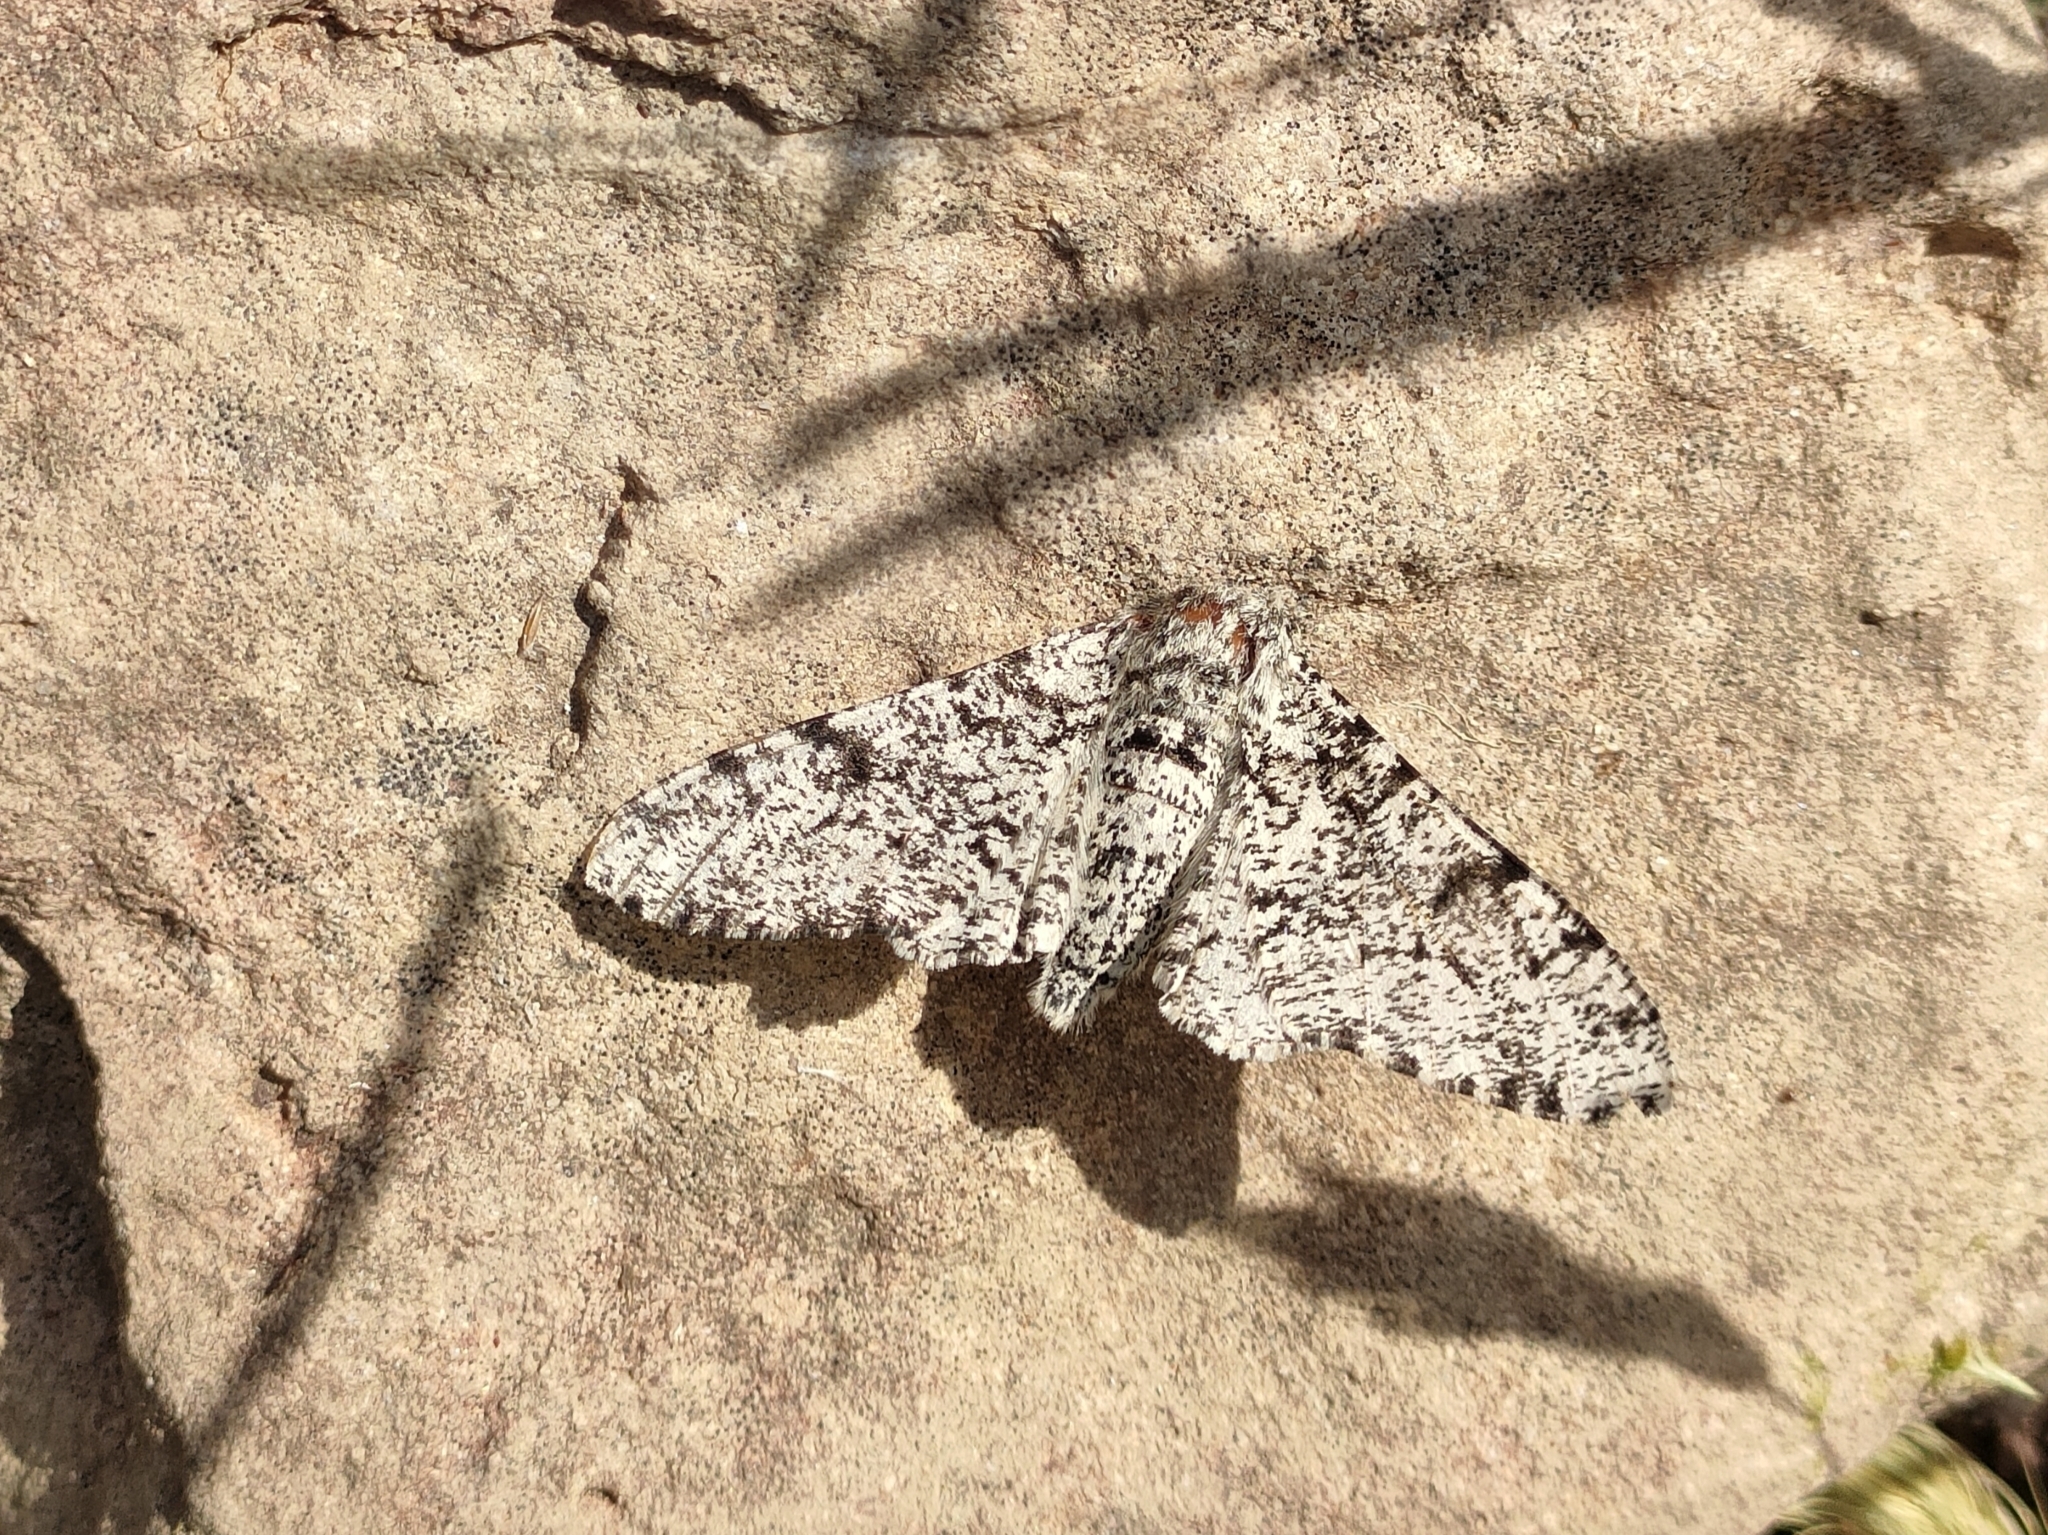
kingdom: Animalia
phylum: Arthropoda
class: Insecta
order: Lepidoptera
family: Geometridae
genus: Biston
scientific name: Biston betularia
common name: Peppered moth
